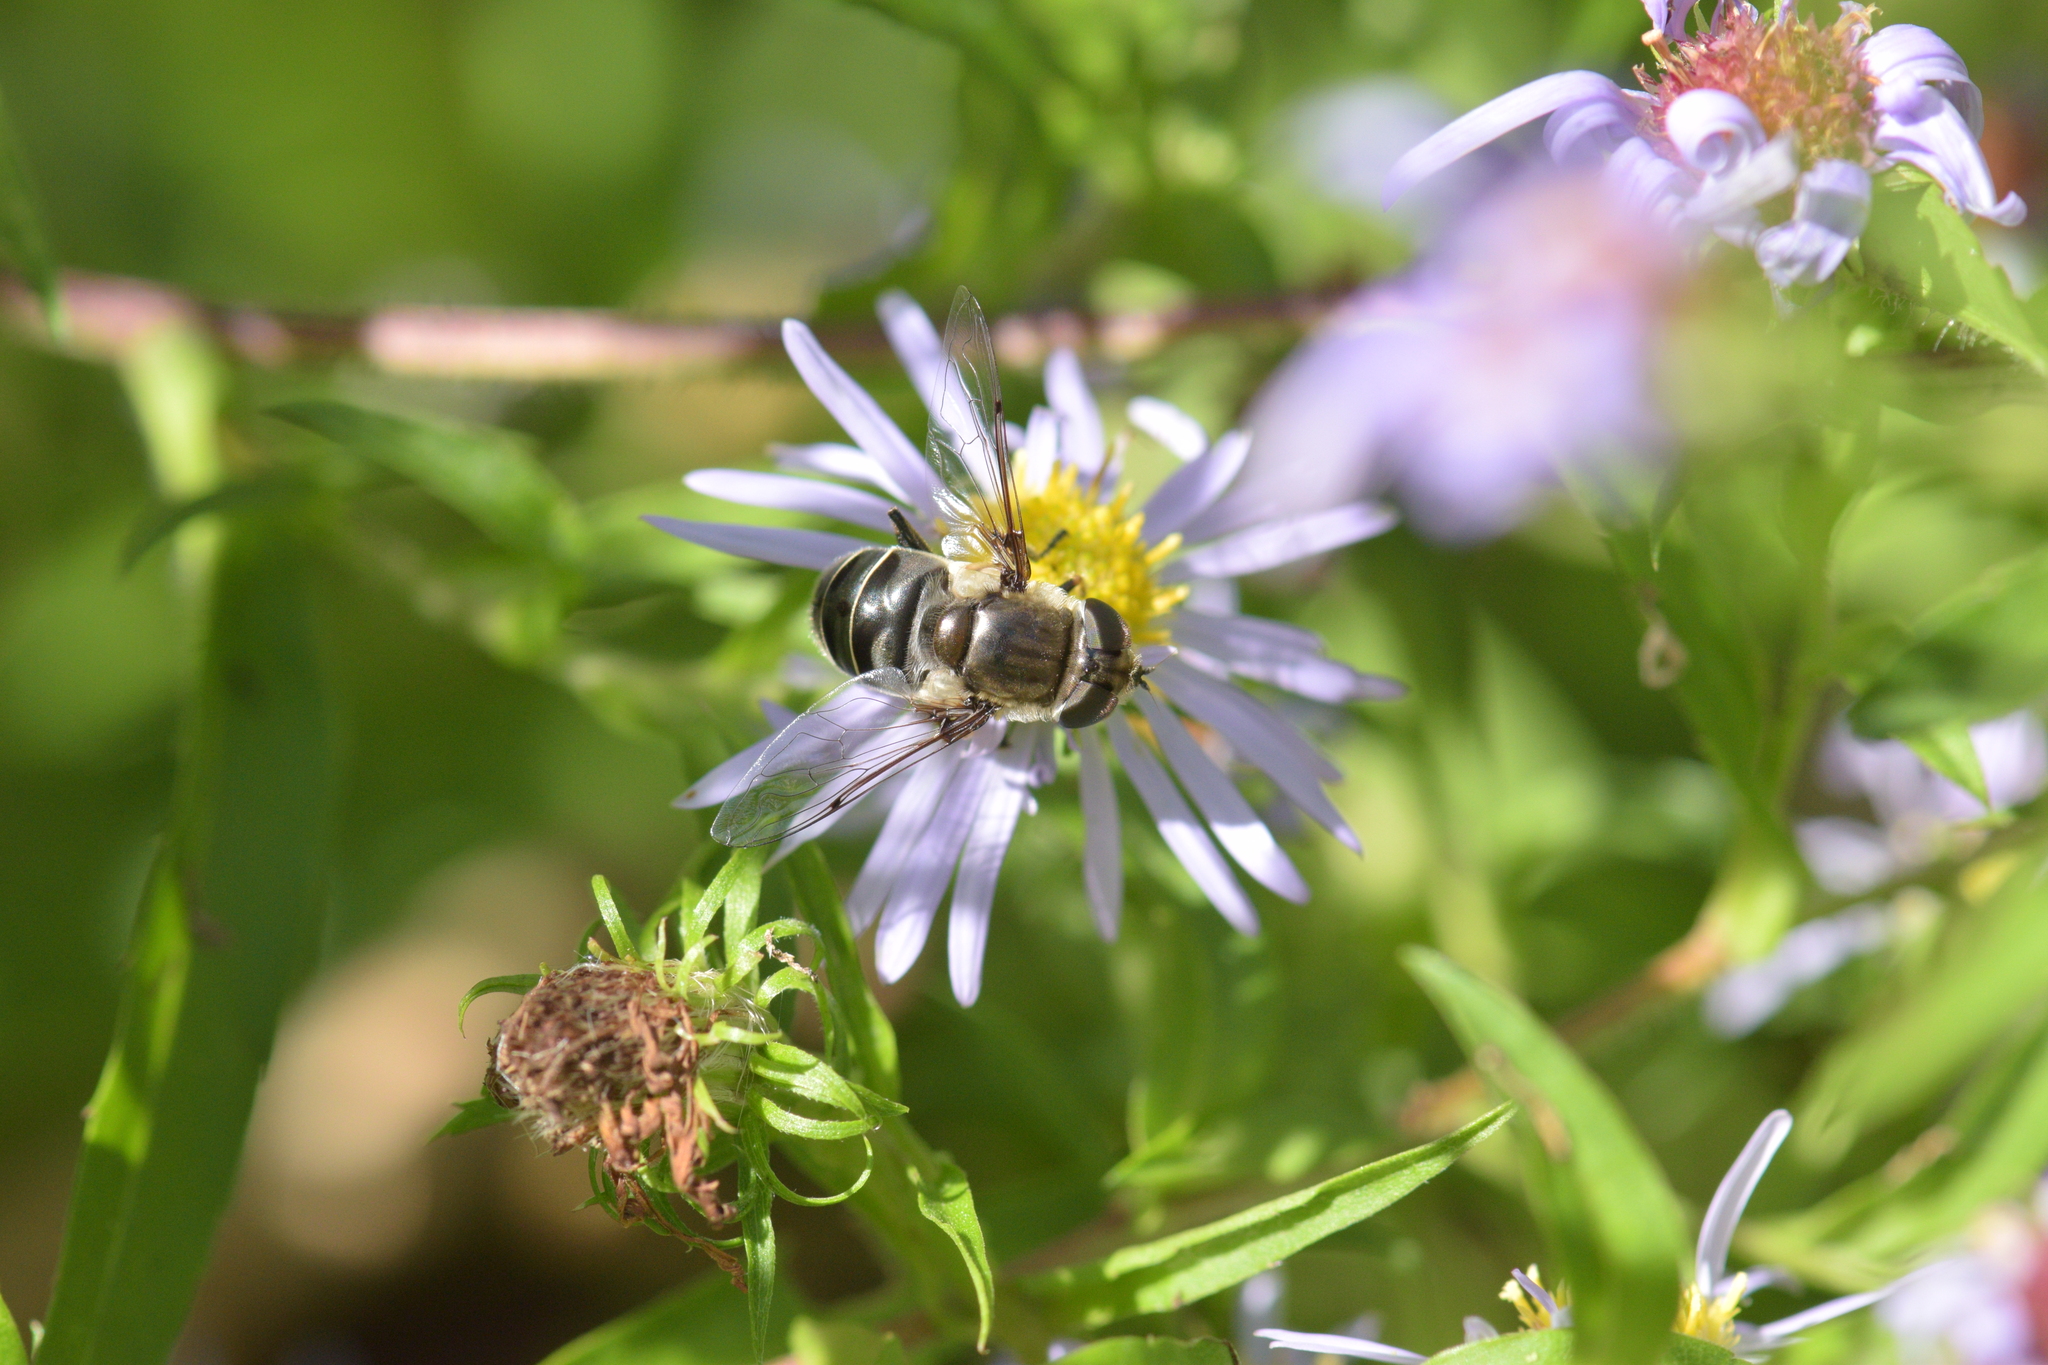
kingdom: Animalia
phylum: Arthropoda
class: Insecta
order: Diptera
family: Syrphidae
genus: Eristalis
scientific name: Eristalis dimidiata
